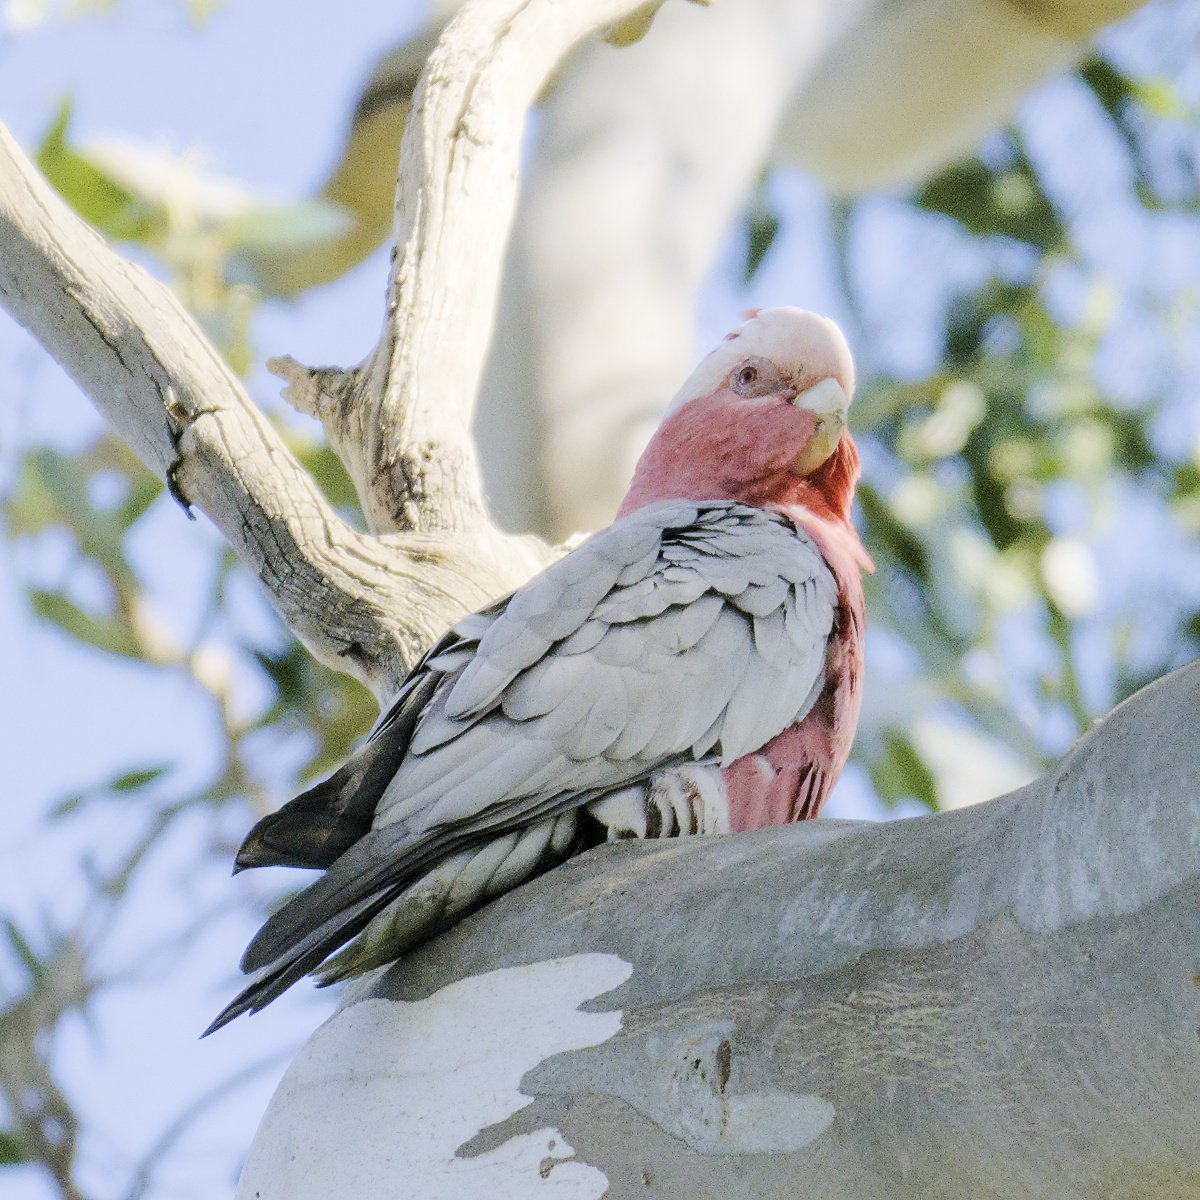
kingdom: Animalia
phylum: Chordata
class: Aves
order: Psittaciformes
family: Psittacidae
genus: Eolophus
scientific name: Eolophus roseicapilla
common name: Galah
